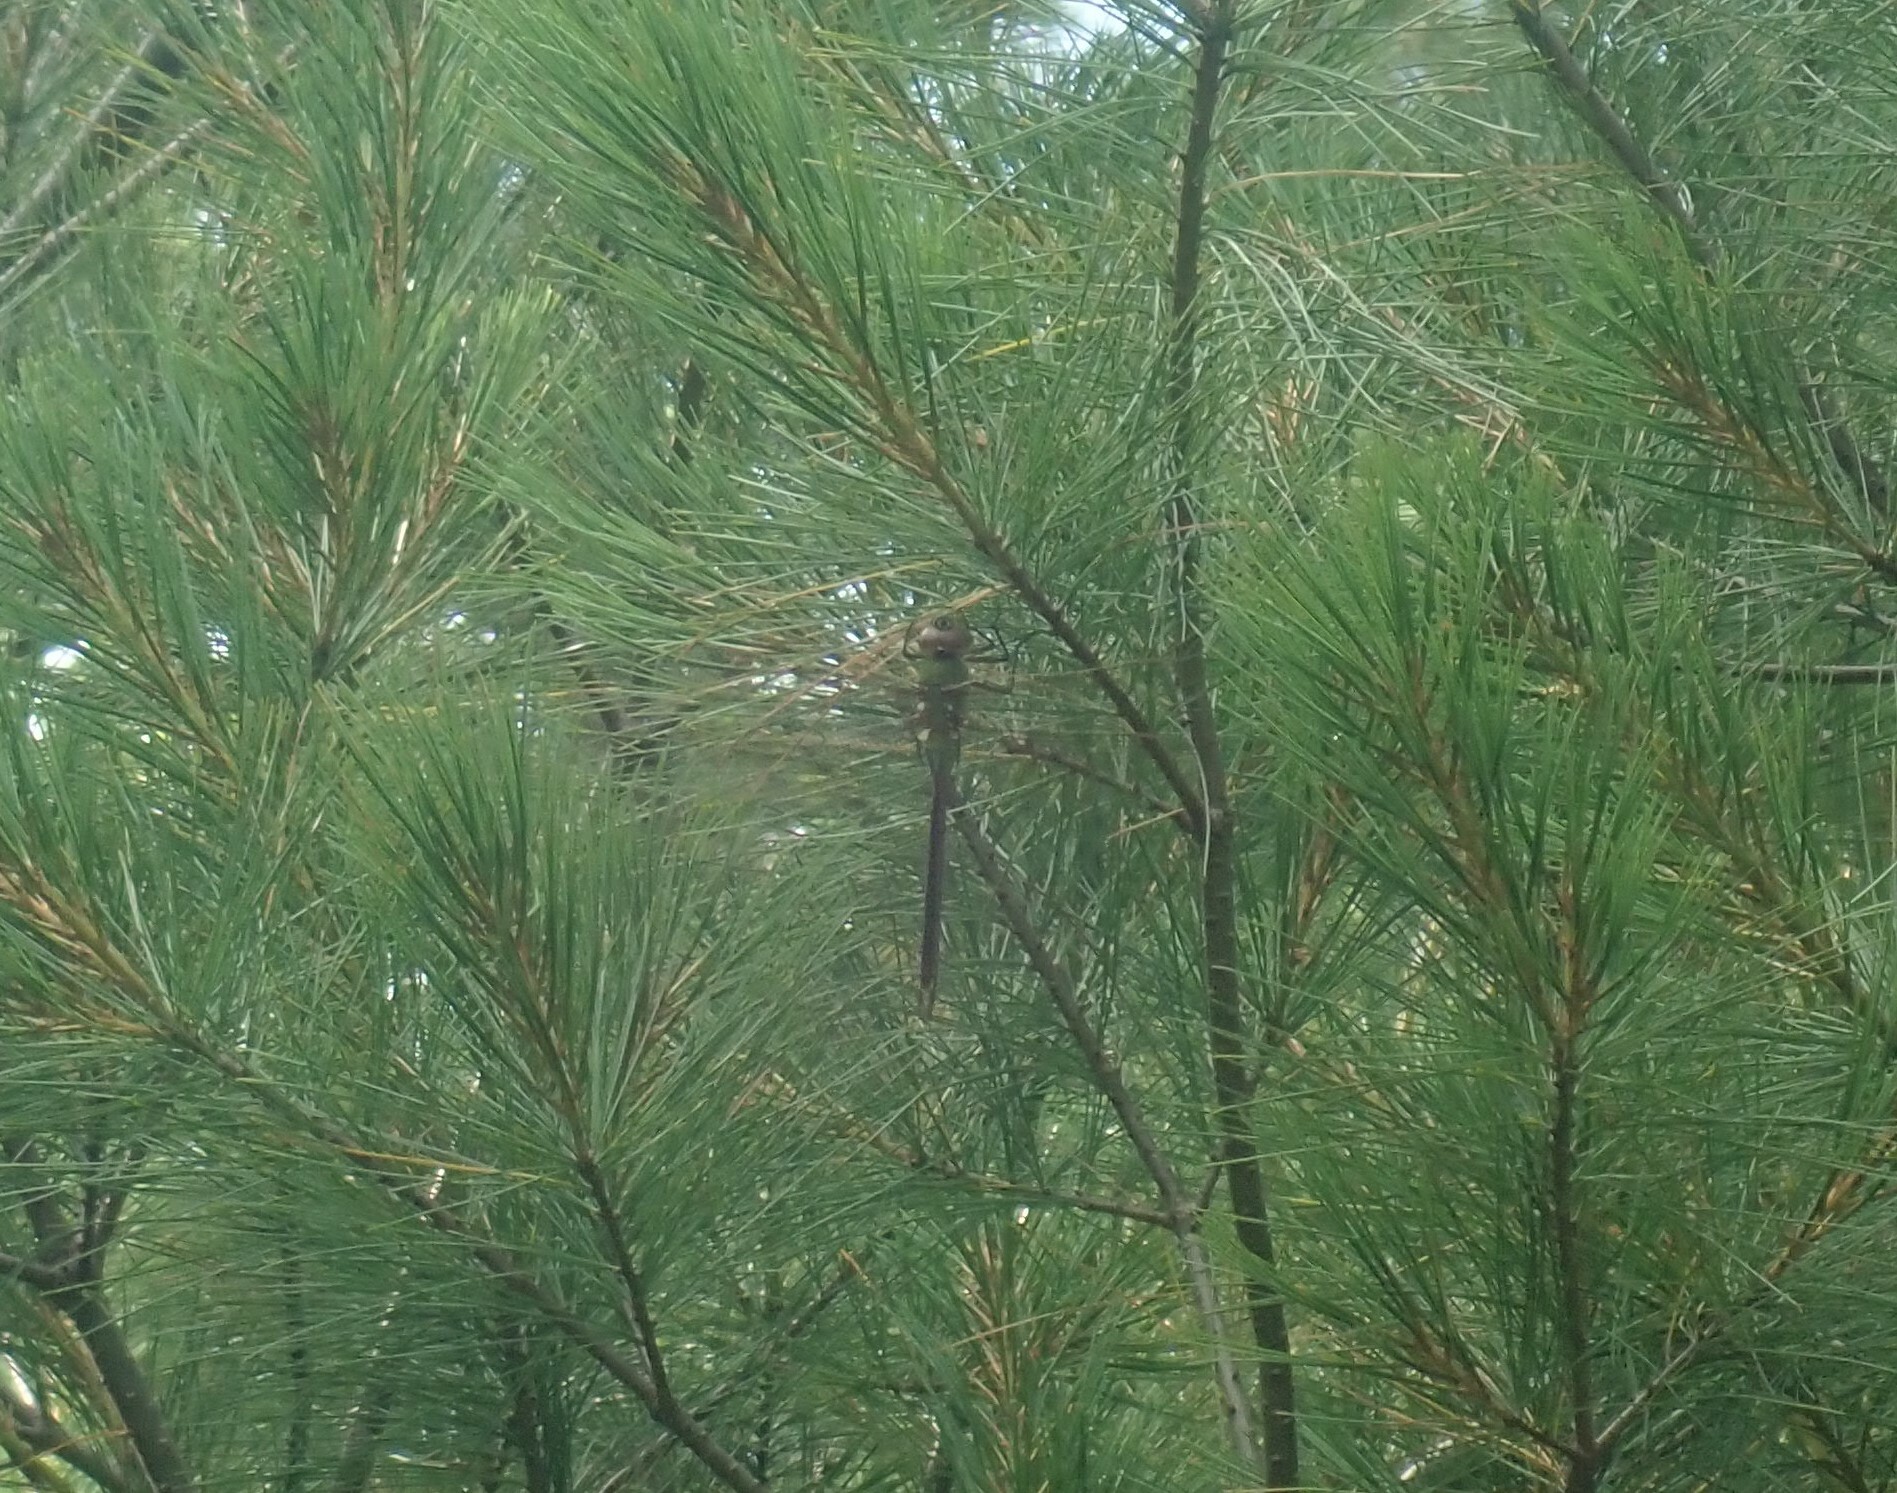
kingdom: Animalia
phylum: Arthropoda
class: Insecta
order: Odonata
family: Aeshnidae
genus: Anax
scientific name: Anax junius
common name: Common green darner
